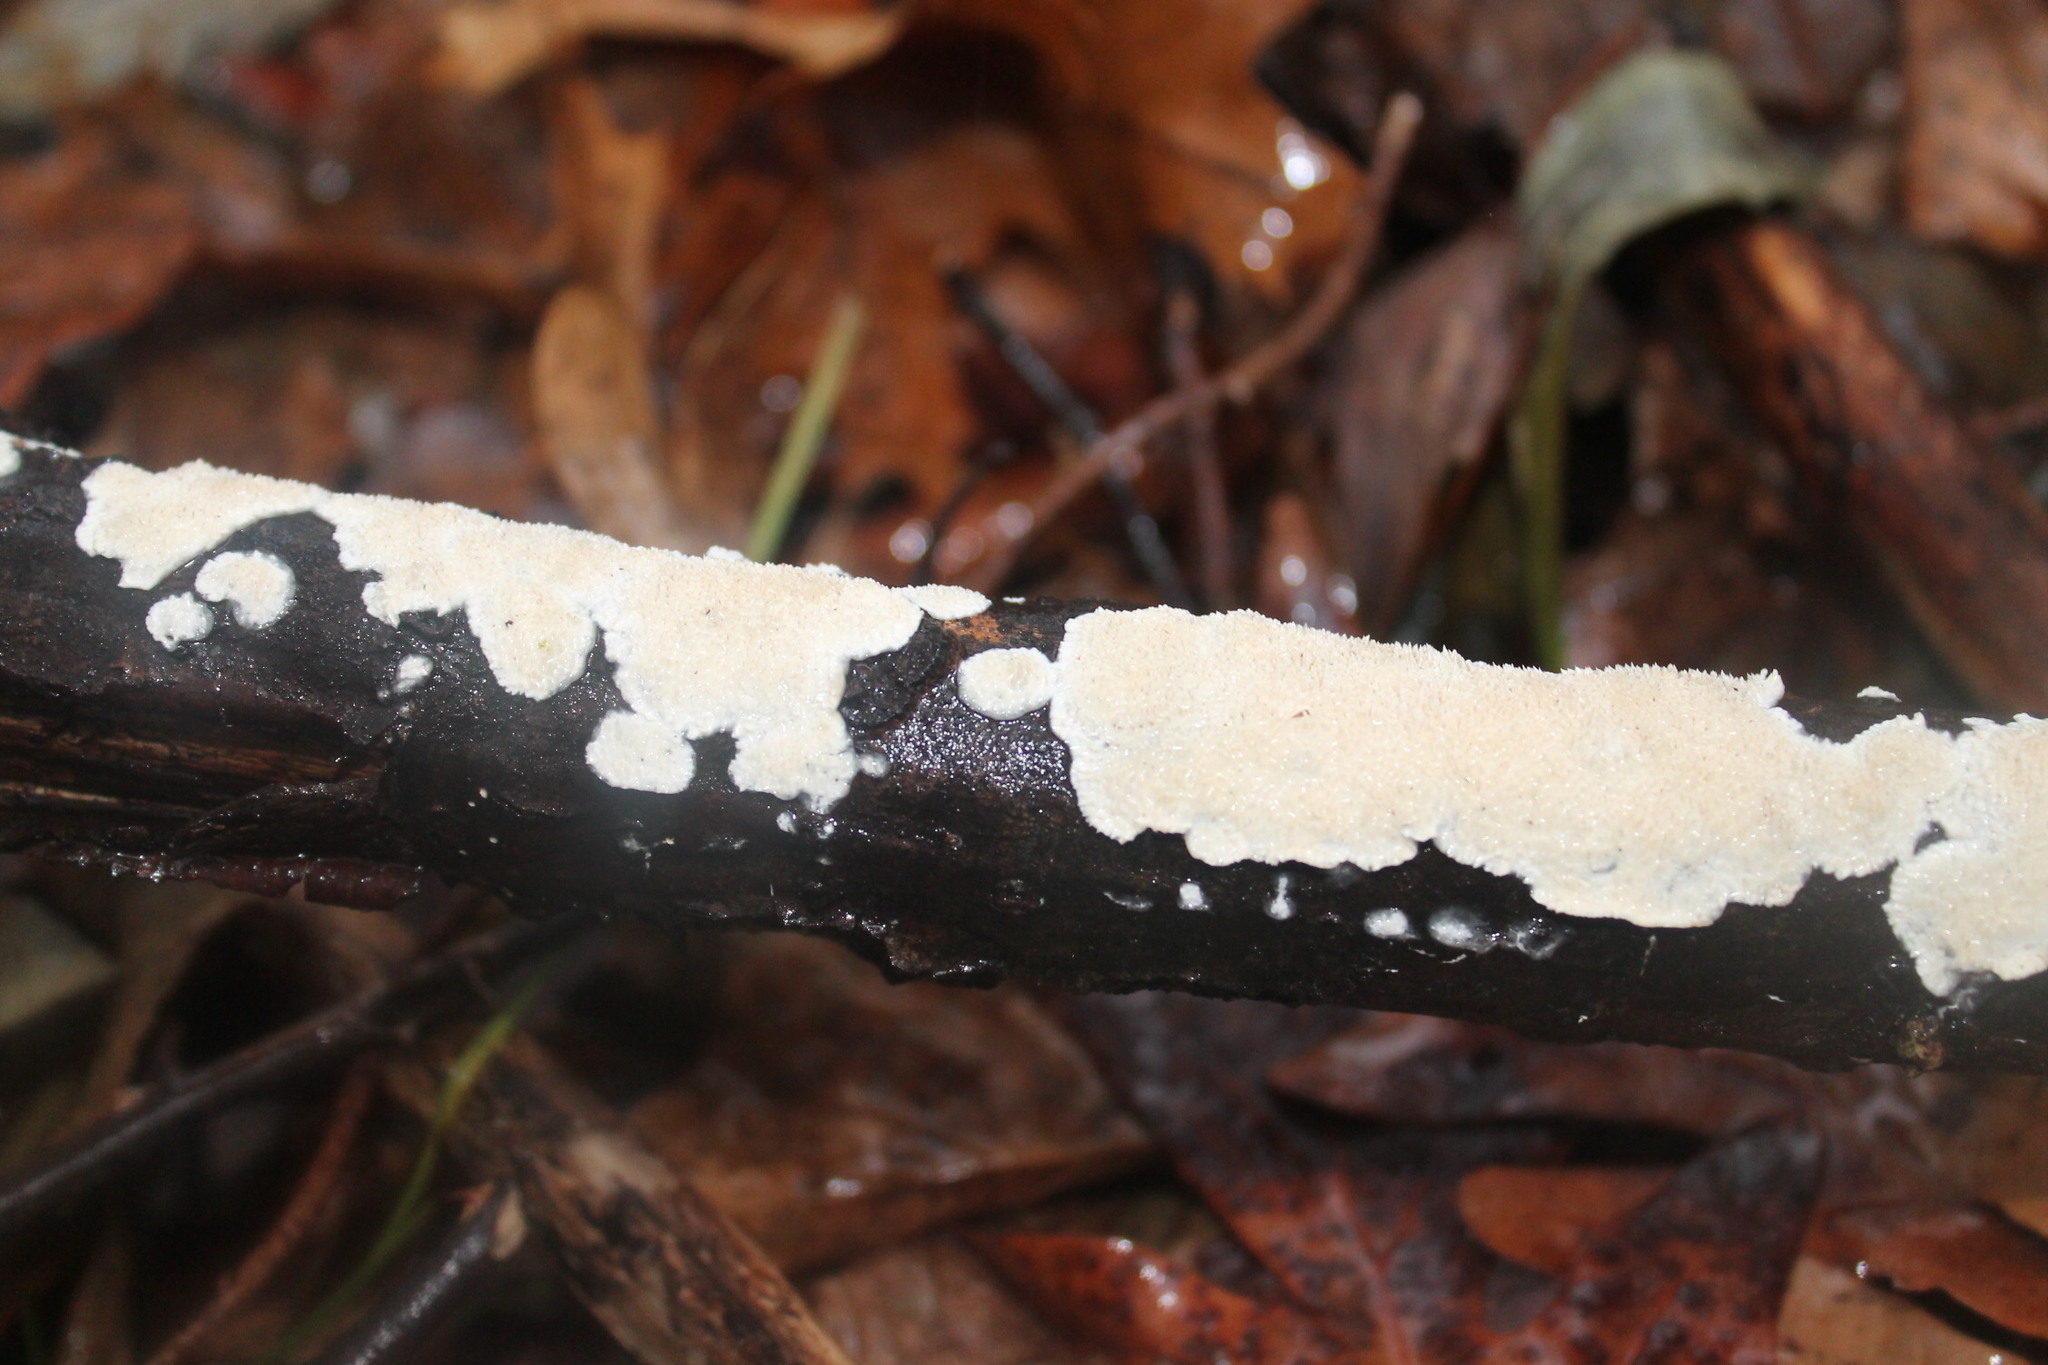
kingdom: Fungi
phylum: Basidiomycota
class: Agaricomycetes
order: Polyporales
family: Irpicaceae
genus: Irpex
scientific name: Irpex lacteus
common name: Milk-white toothed polypore
